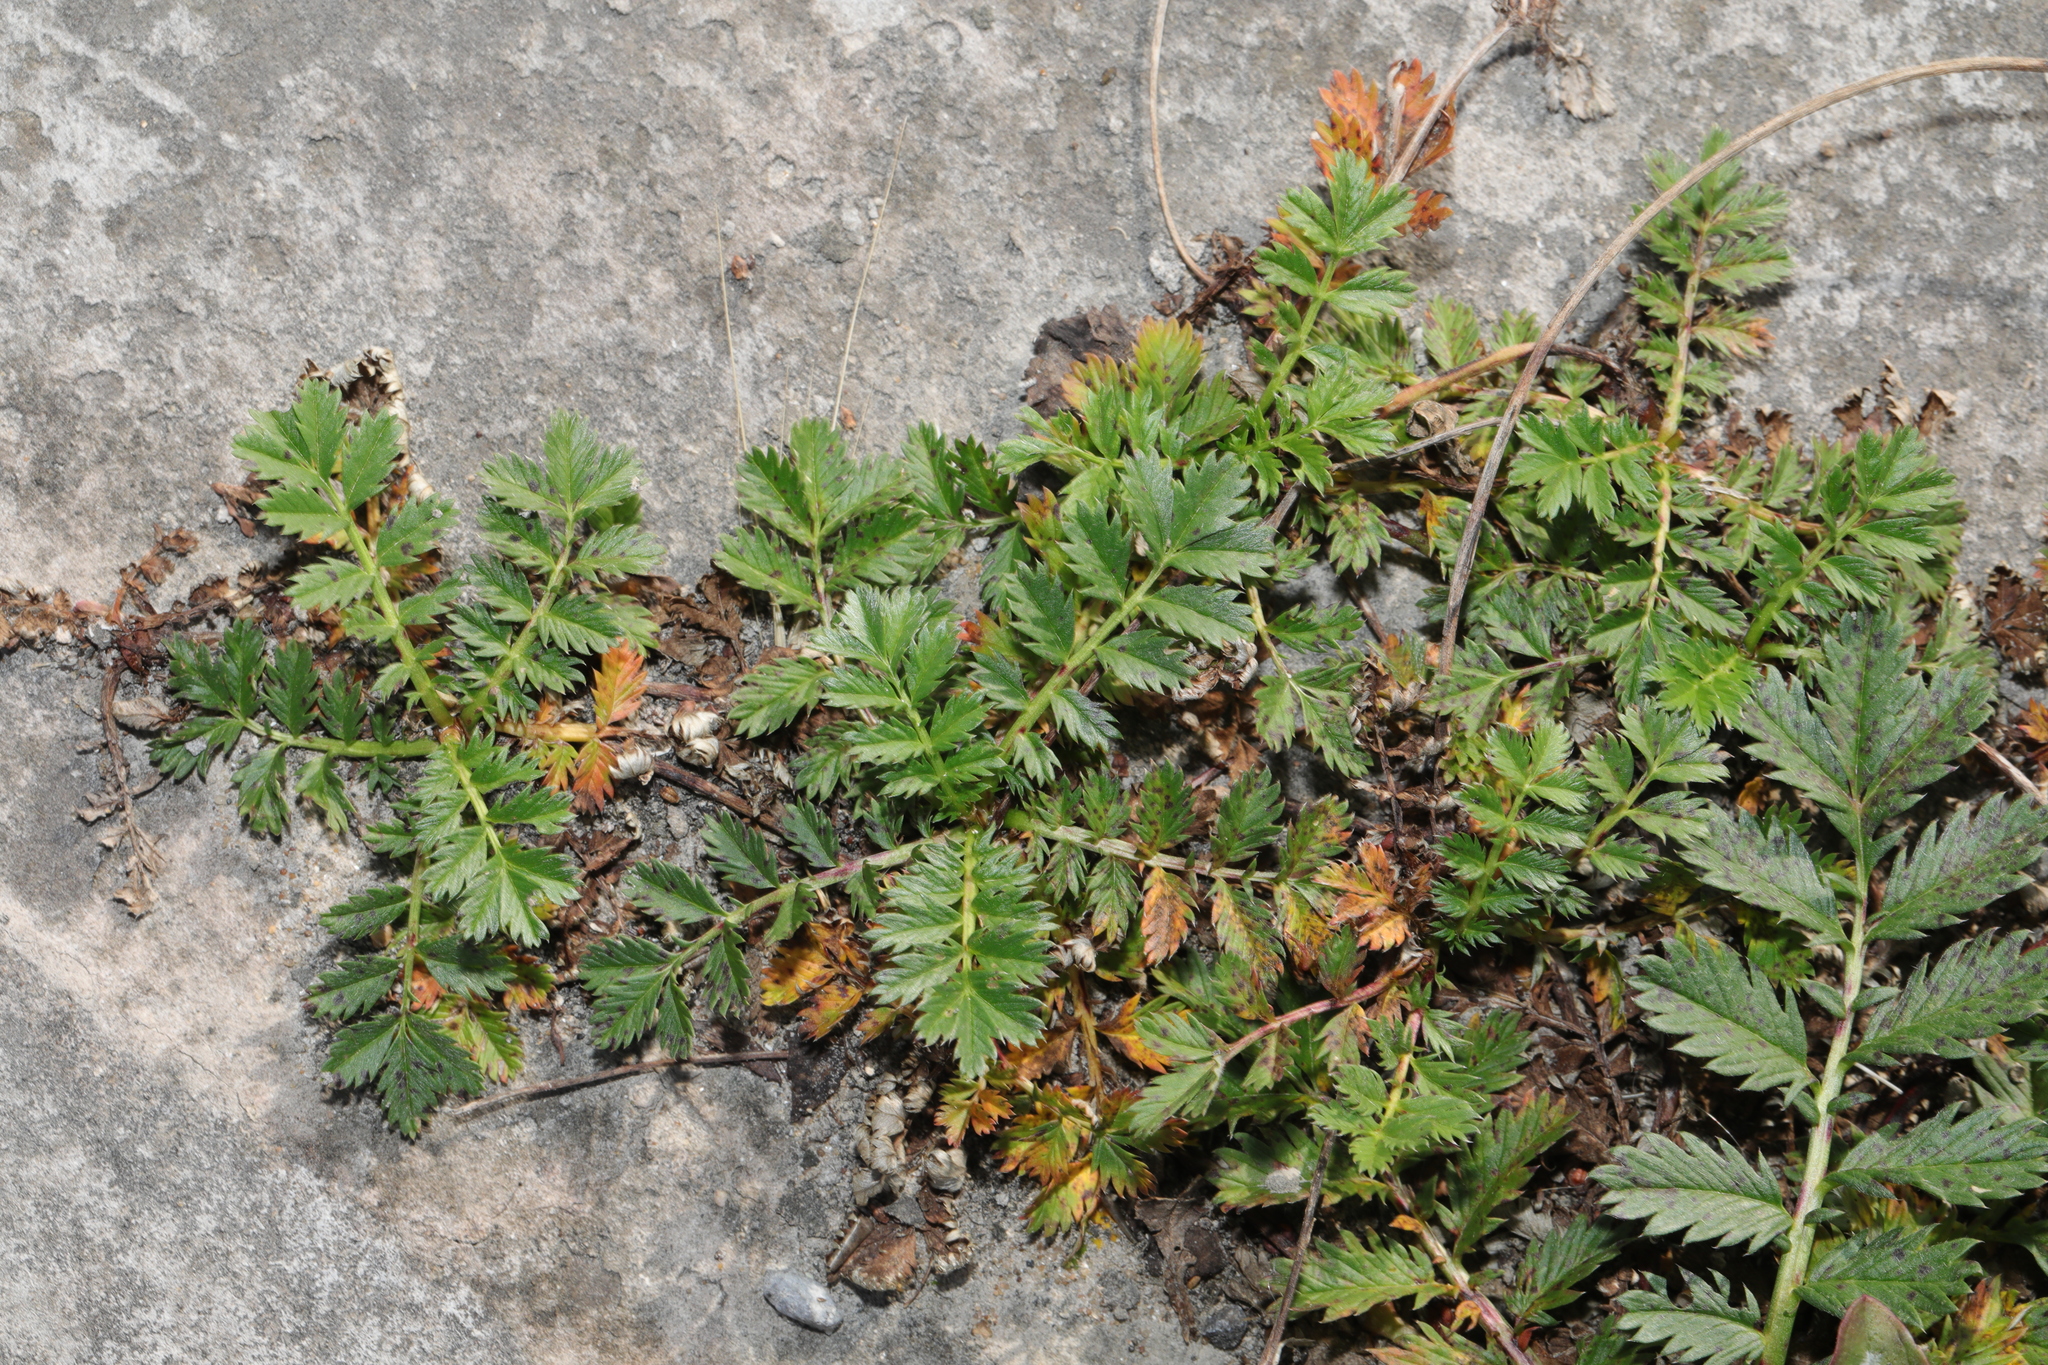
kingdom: Plantae
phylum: Tracheophyta
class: Magnoliopsida
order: Rosales
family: Rosaceae
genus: Argentina
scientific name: Argentina anserina
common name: Common silverweed
